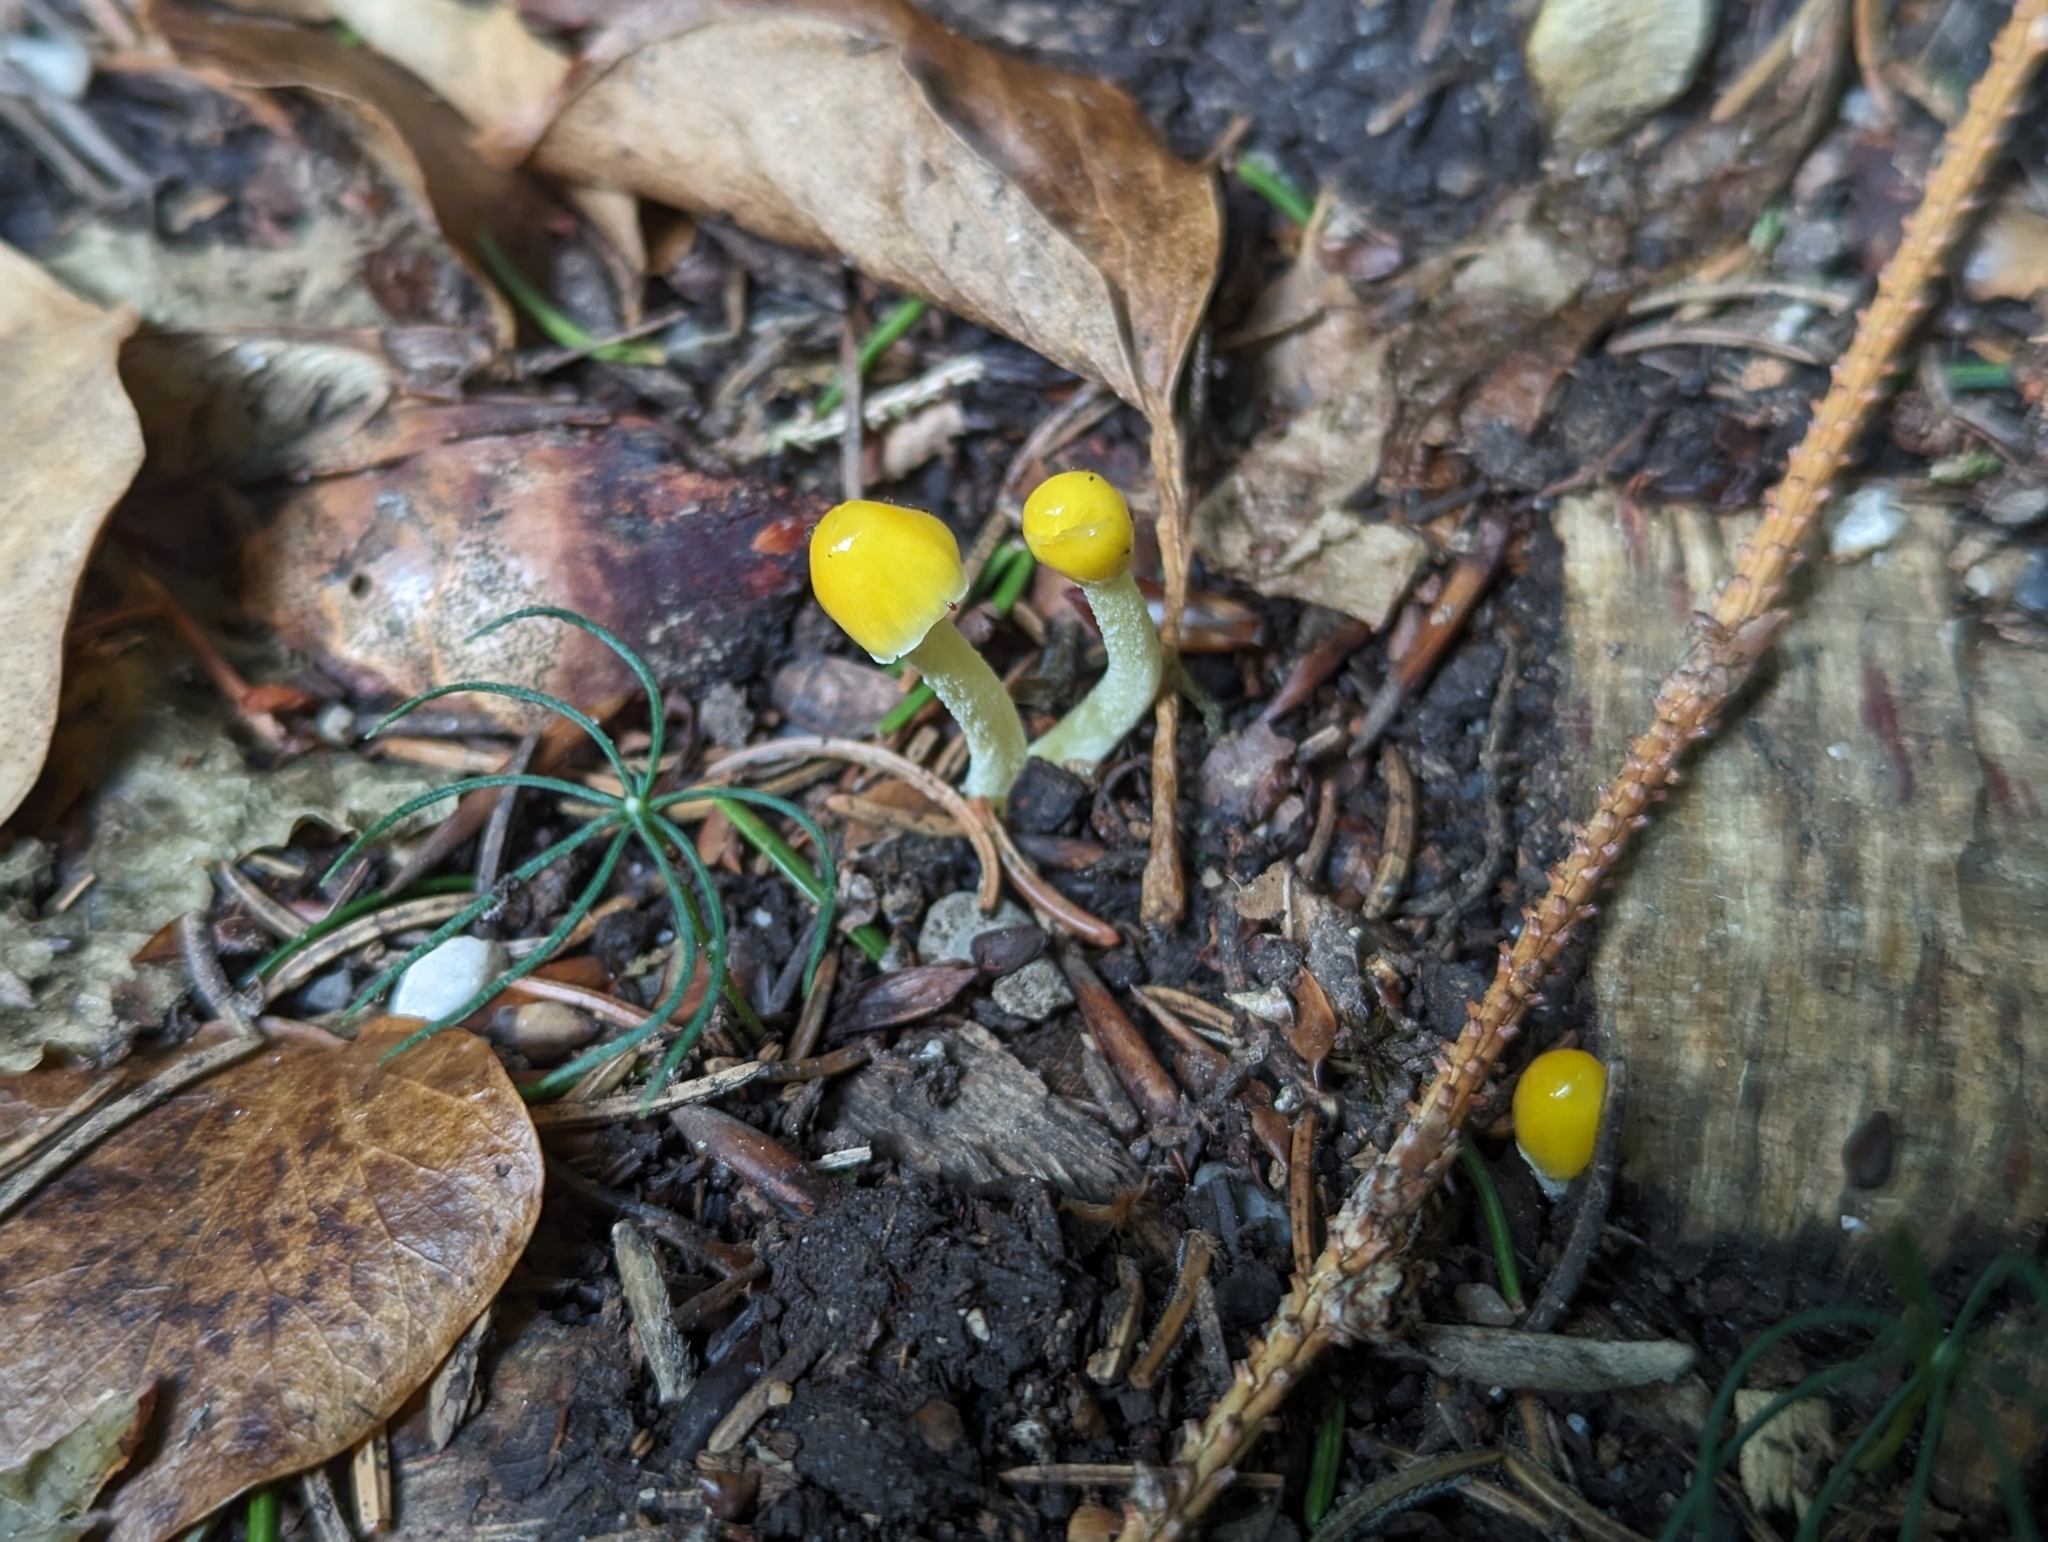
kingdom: Fungi
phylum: Basidiomycota
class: Agaricomycetes
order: Agaricales
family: Bolbitiaceae
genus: Bolbitius
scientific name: Bolbitius titubans
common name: Yellow fieldcap
